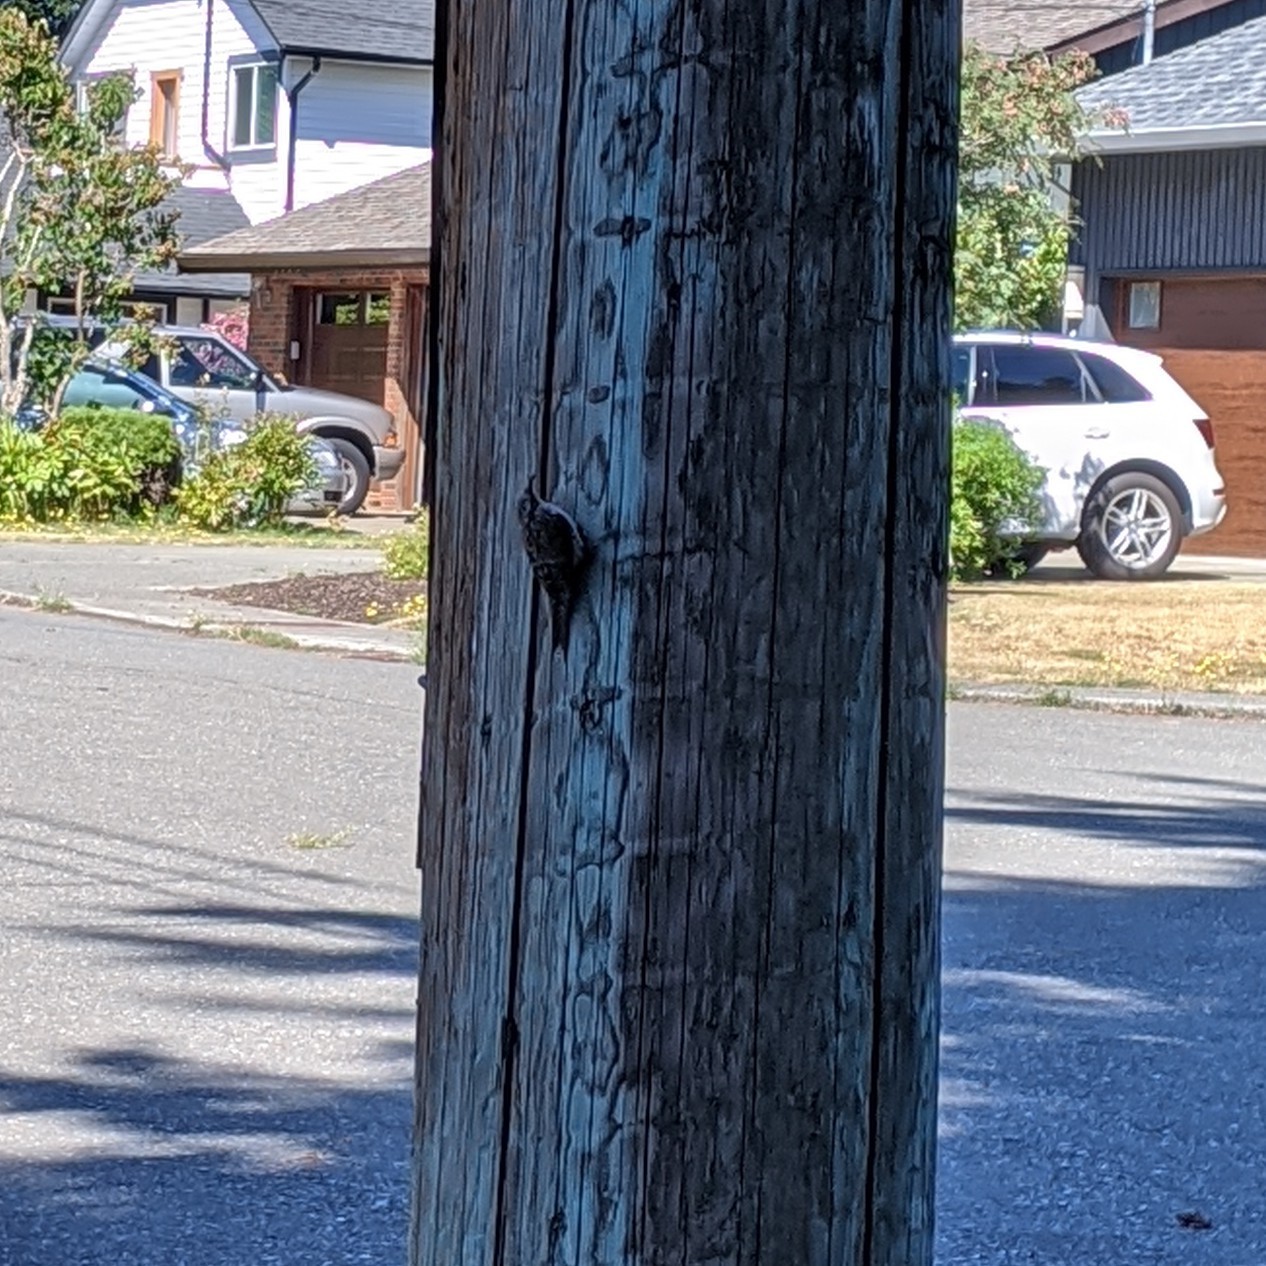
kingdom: Animalia
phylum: Chordata
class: Aves
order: Passeriformes
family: Certhiidae
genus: Certhia
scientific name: Certhia americana
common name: Brown creeper
